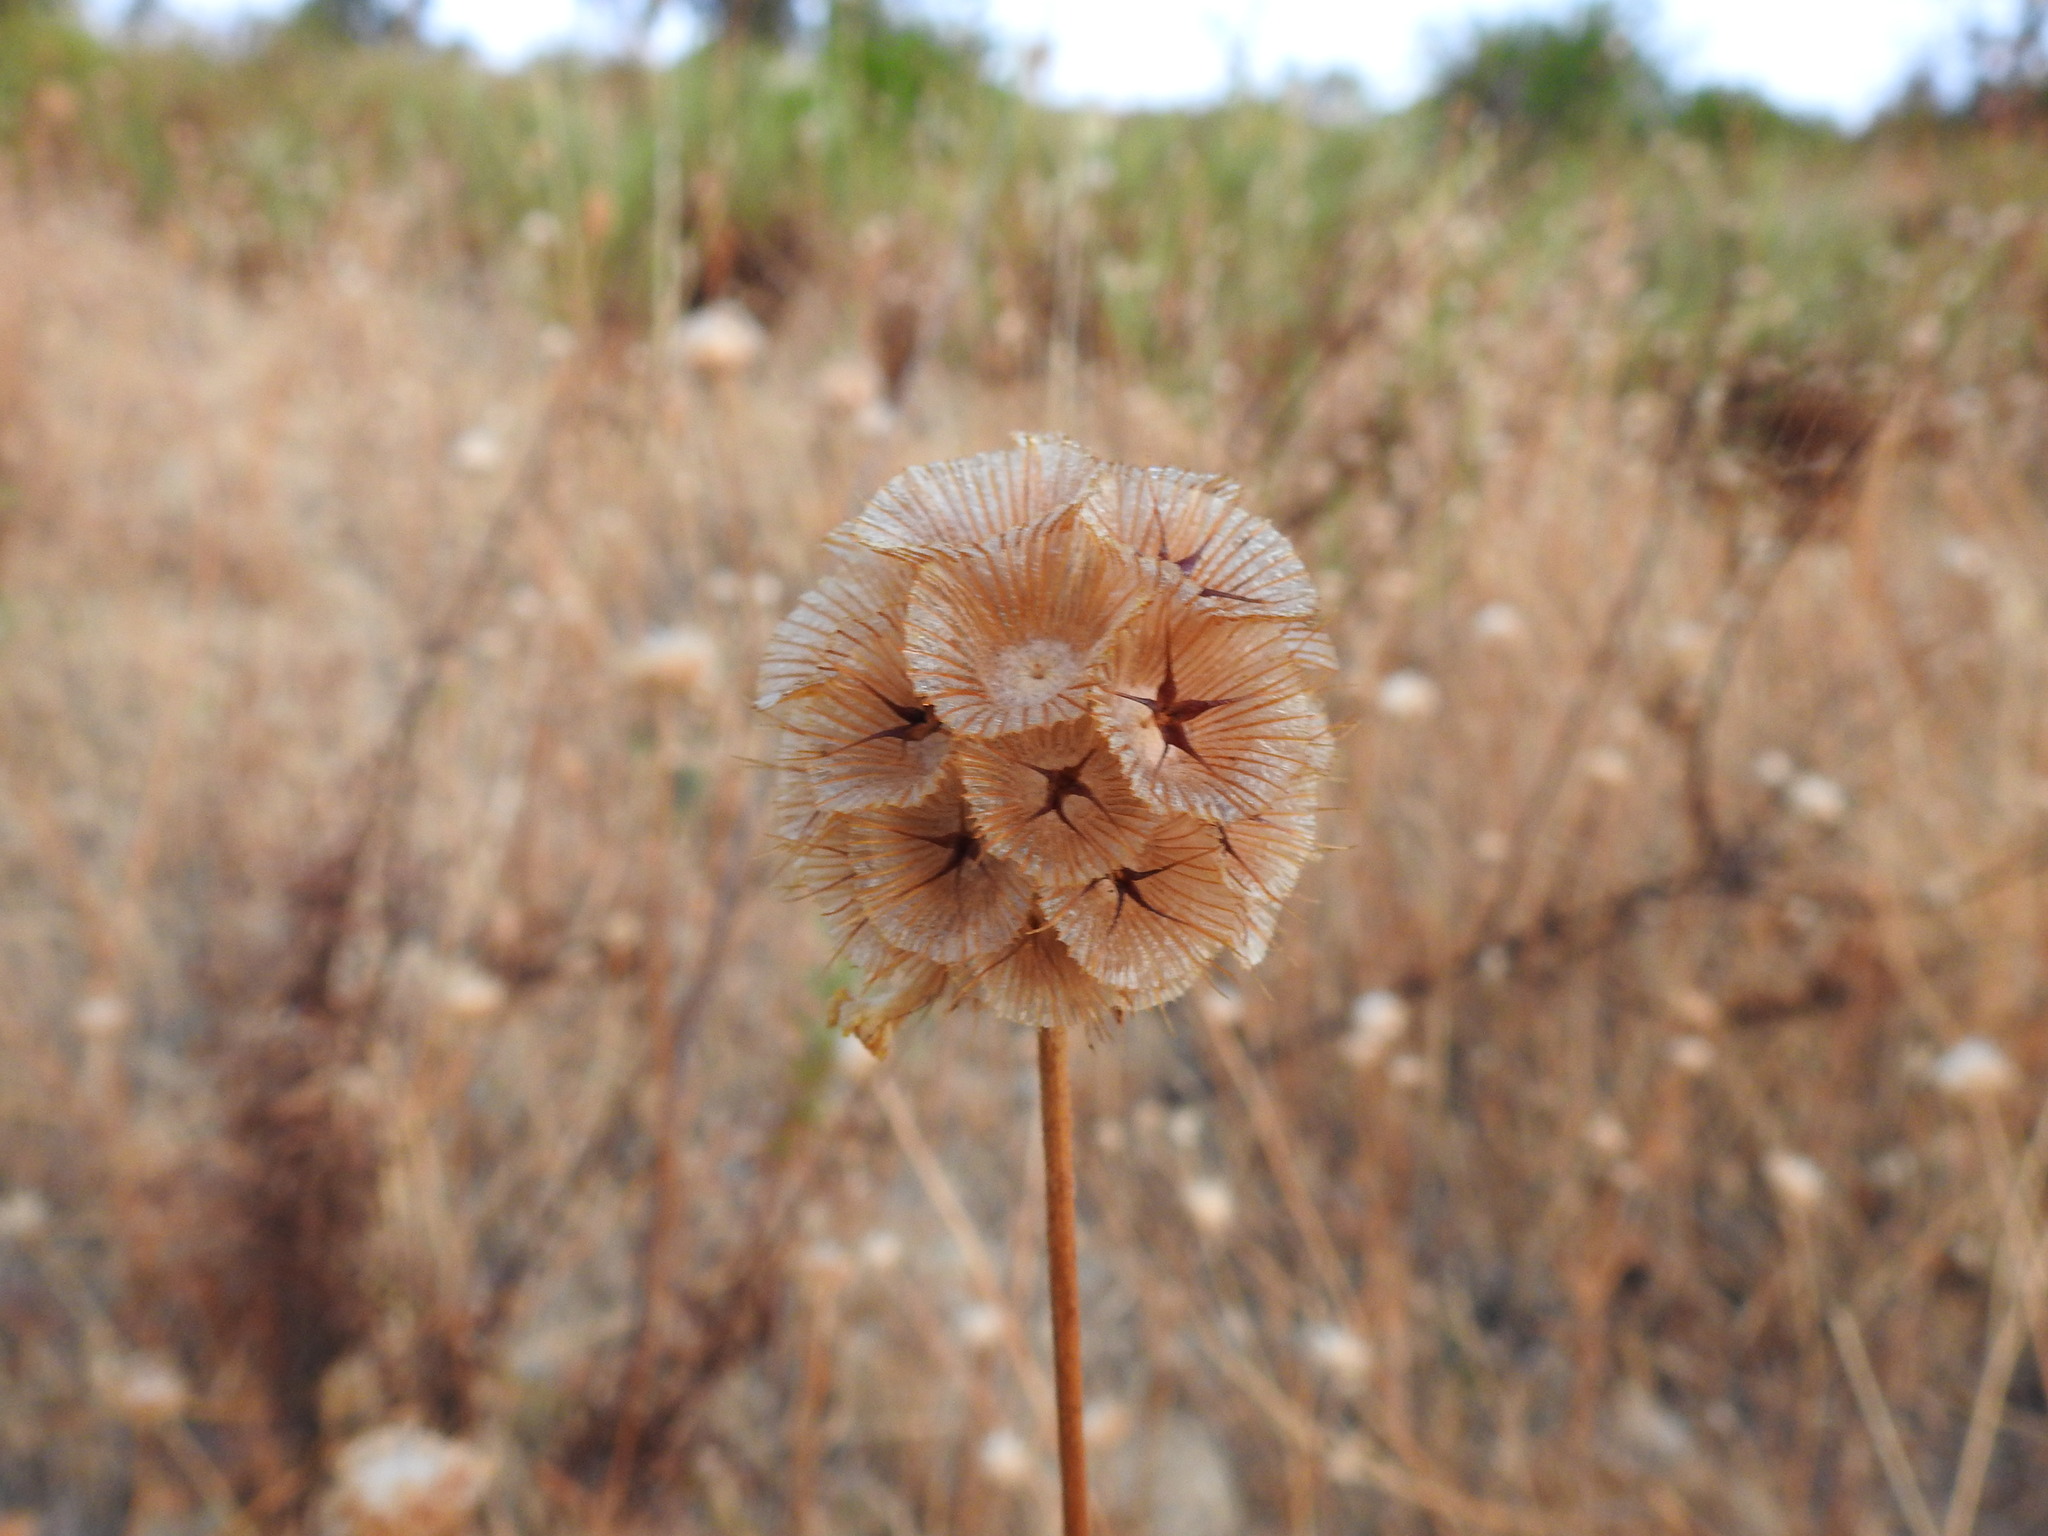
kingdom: Plantae
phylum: Tracheophyta
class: Magnoliopsida
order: Dipsacales
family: Caprifoliaceae
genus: Lomelosia
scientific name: Lomelosia simplex
